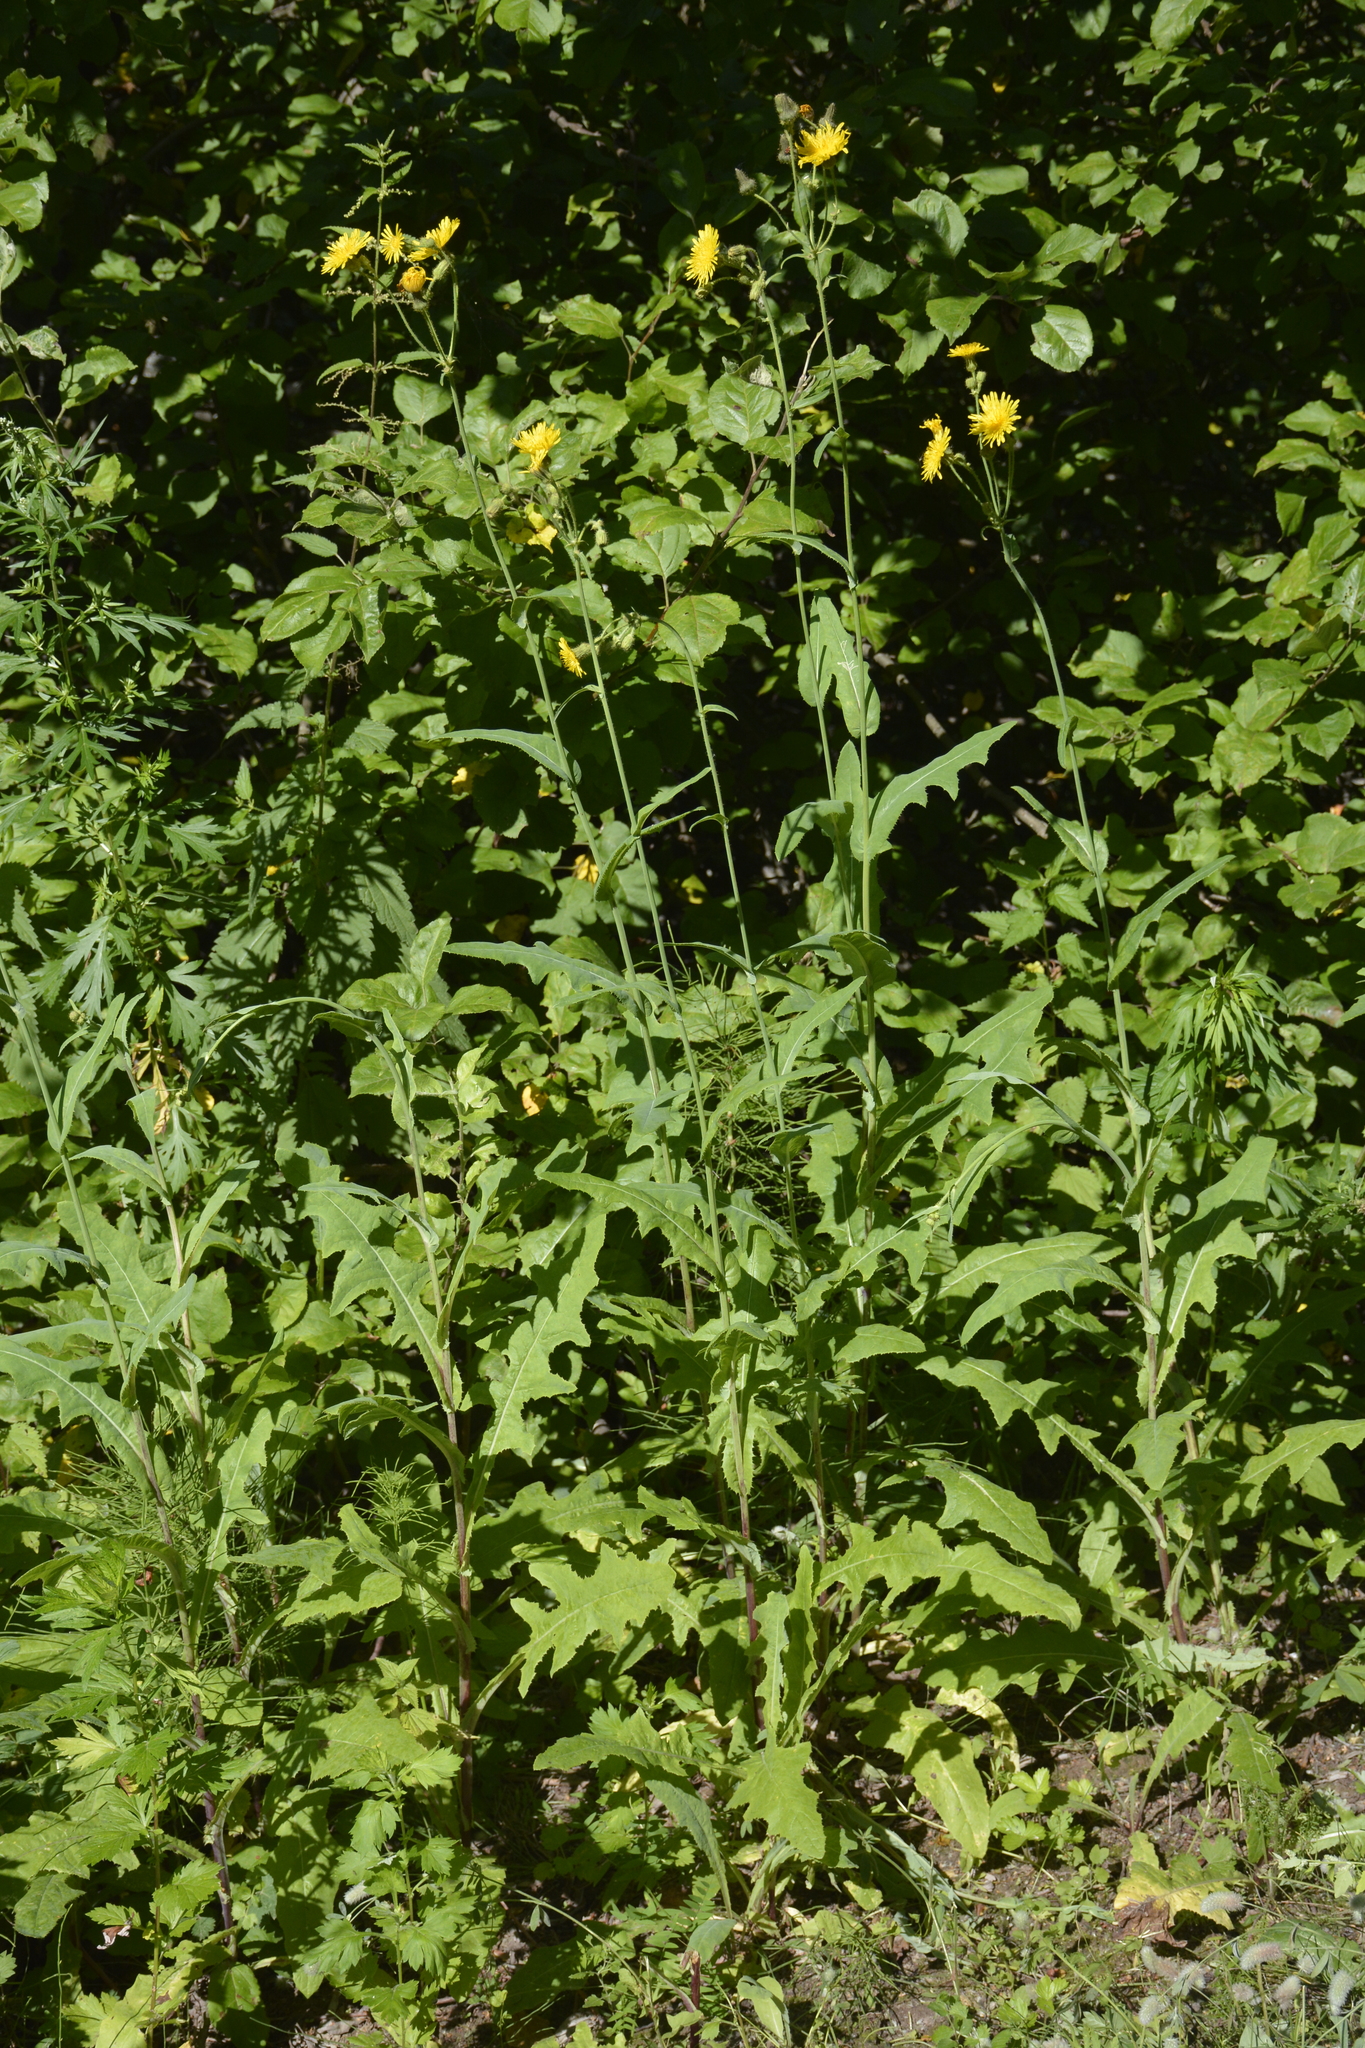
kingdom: Plantae
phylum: Tracheophyta
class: Magnoliopsida
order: Asterales
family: Asteraceae
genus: Sonchus
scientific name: Sonchus arvensis
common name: Perennial sow-thistle
